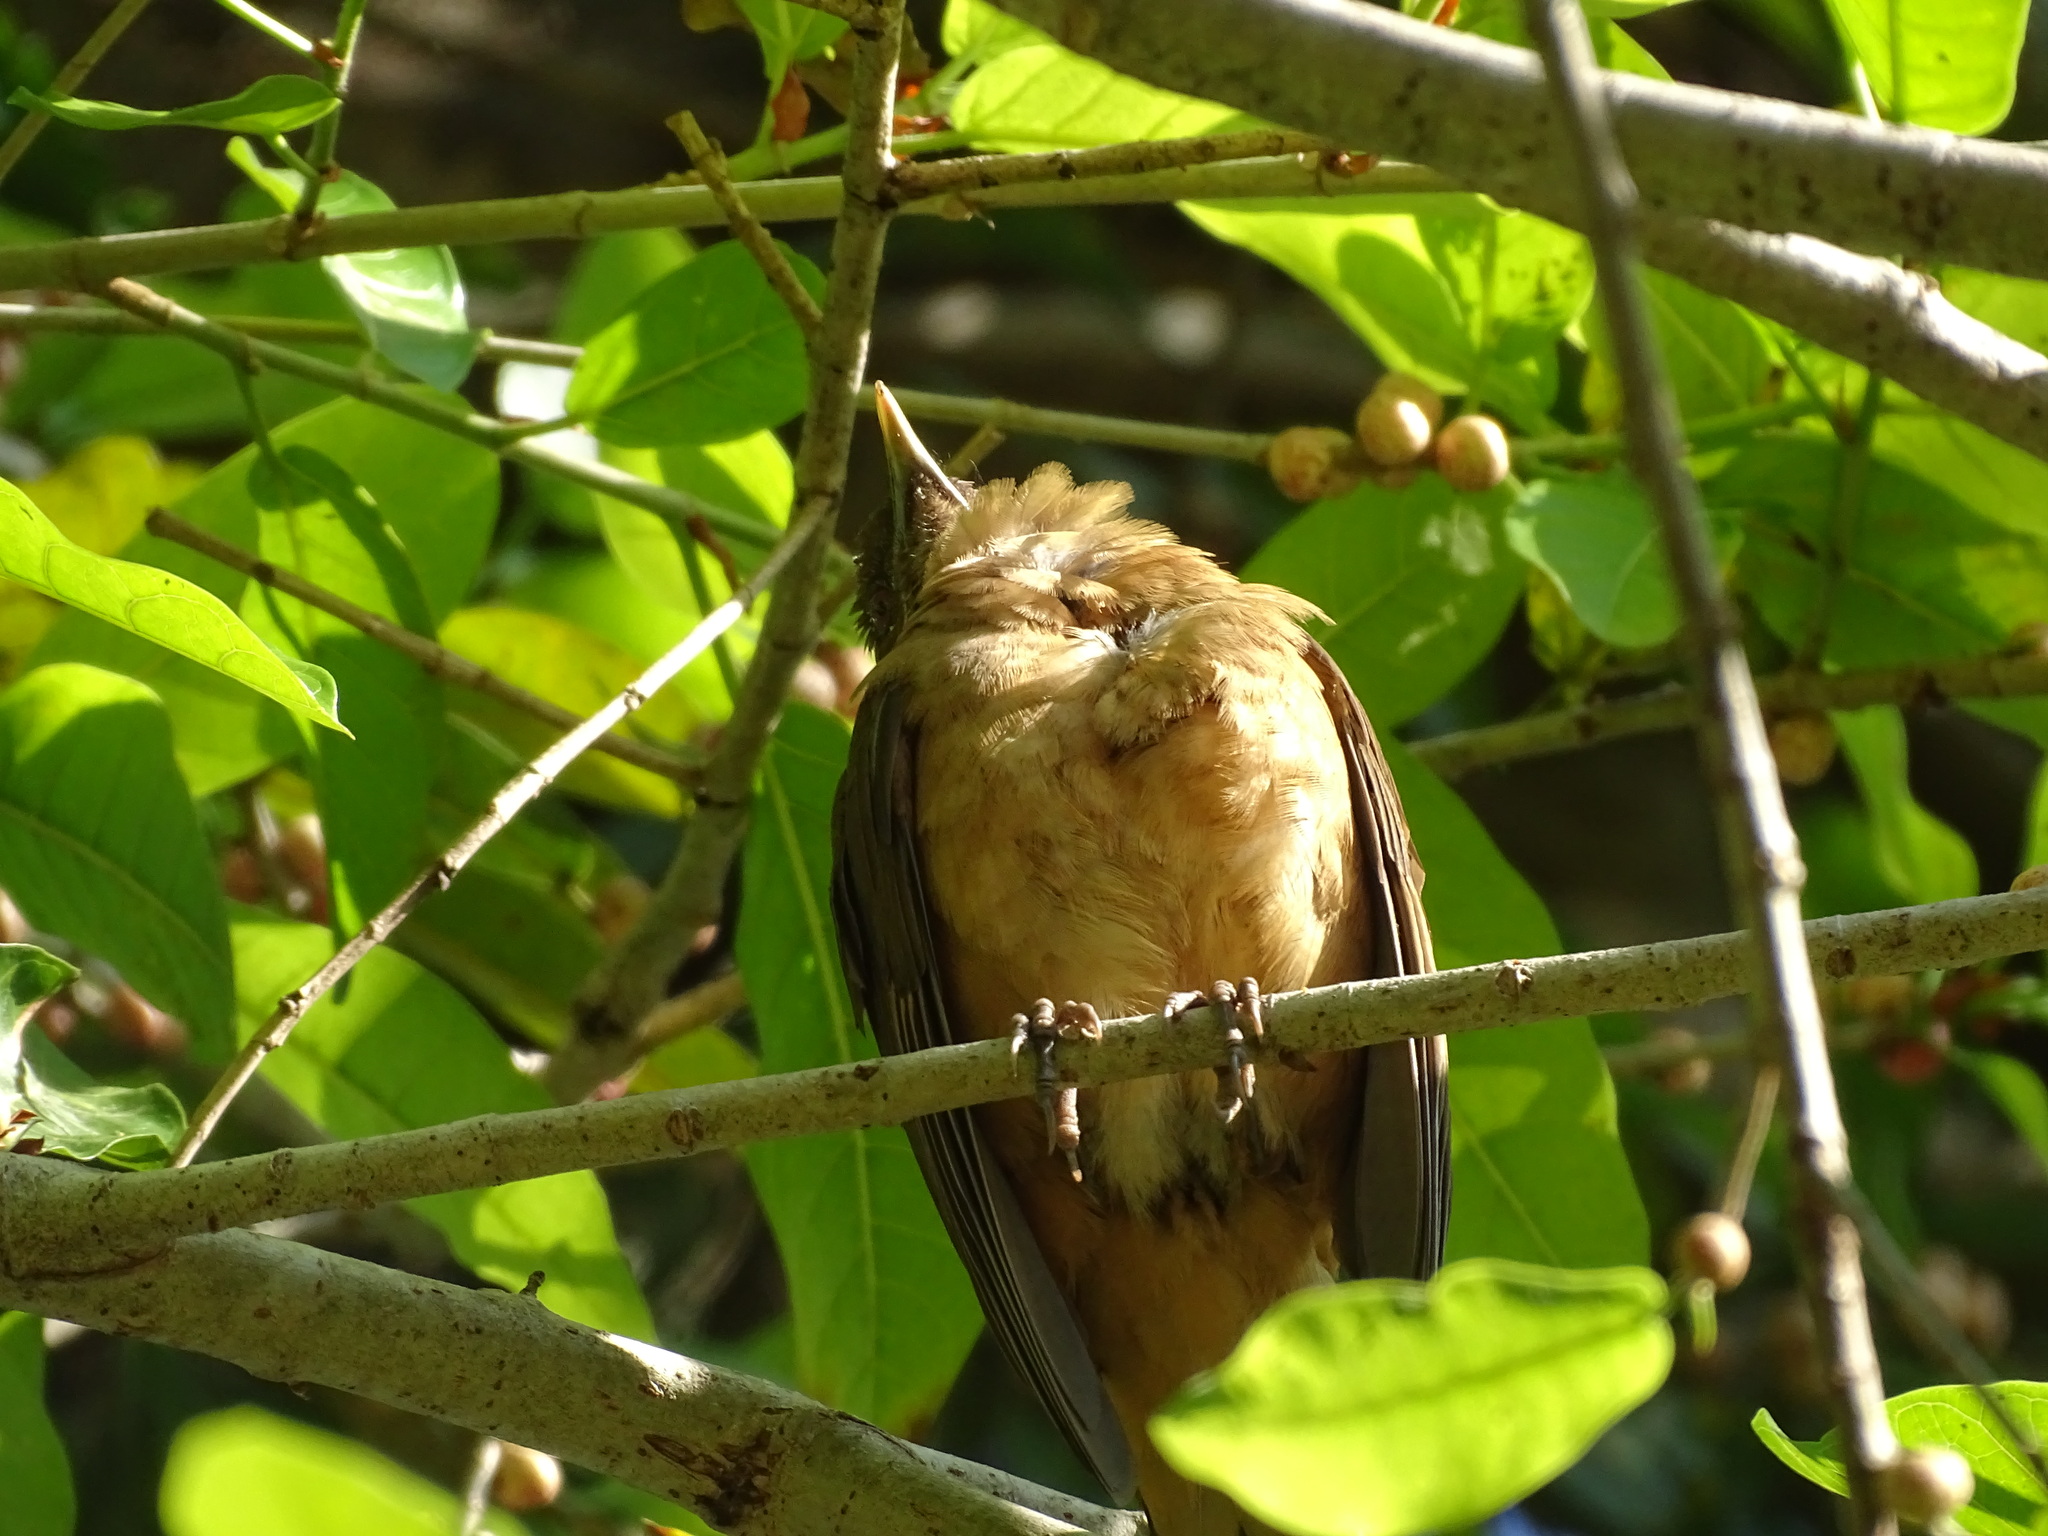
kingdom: Animalia
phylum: Chordata
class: Aves
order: Passeriformes
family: Turdidae
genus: Turdus
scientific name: Turdus grayi
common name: Clay-colored thrush
